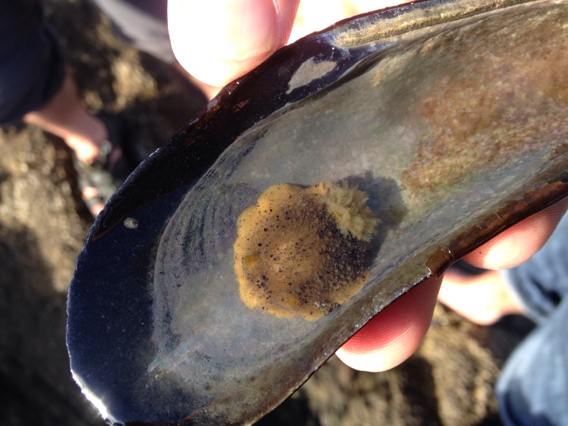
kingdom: Animalia
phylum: Mollusca
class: Gastropoda
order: Nudibranchia
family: Dorididae
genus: Doris
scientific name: Doris montereyensis
